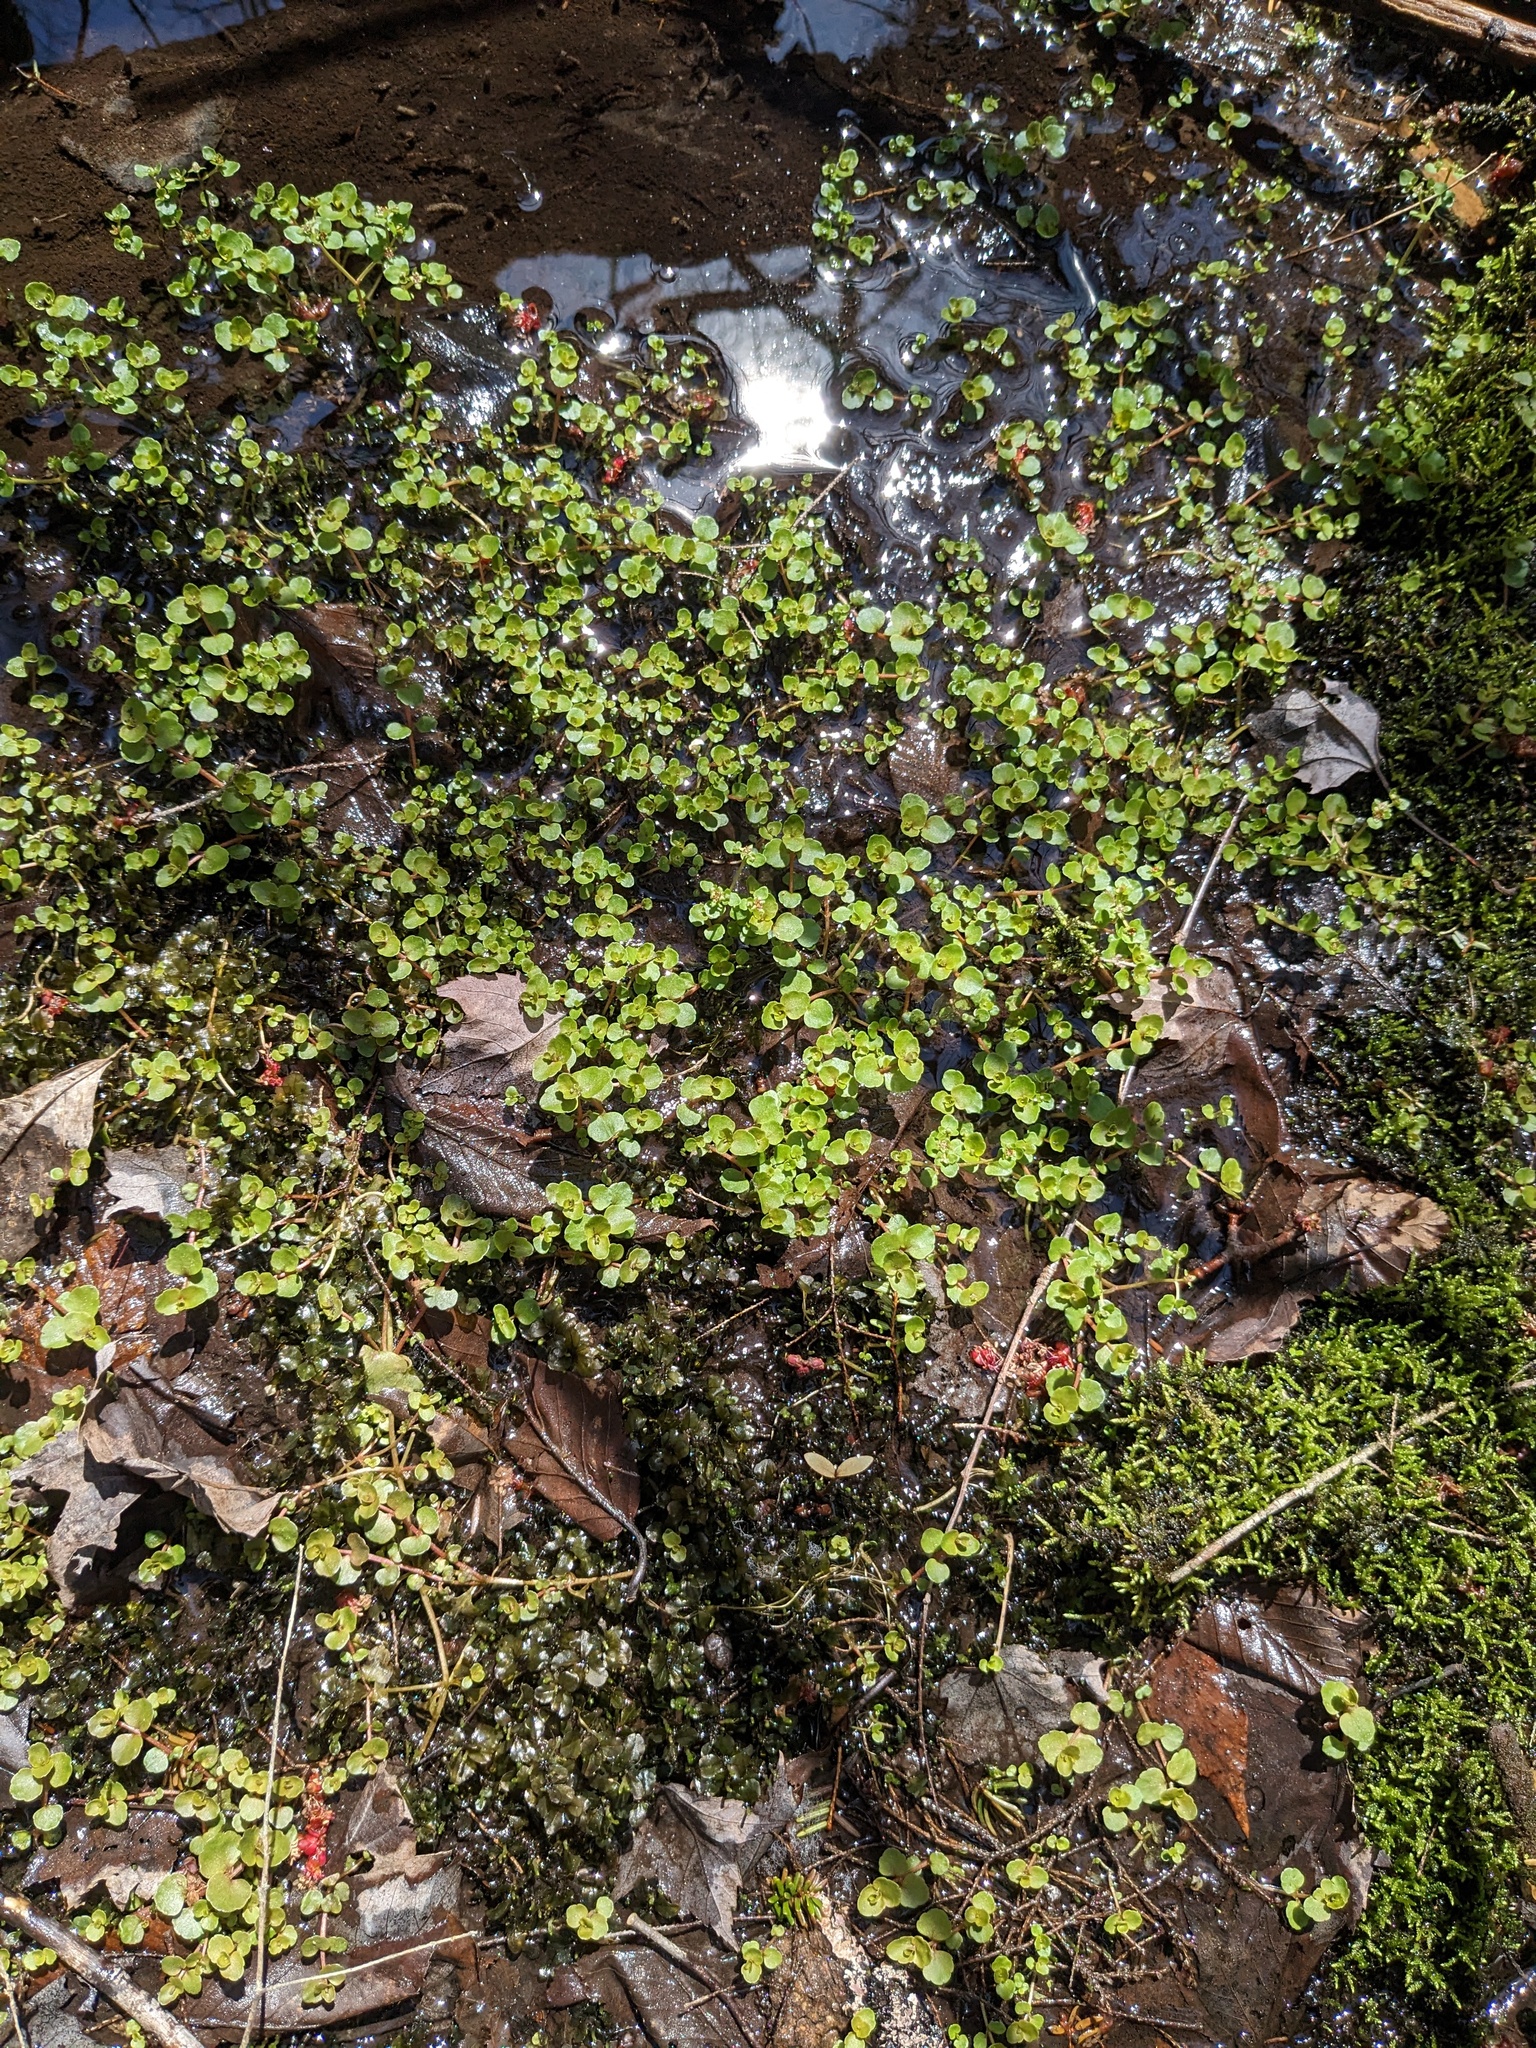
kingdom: Plantae
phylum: Tracheophyta
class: Magnoliopsida
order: Saxifragales
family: Saxifragaceae
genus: Chrysosplenium
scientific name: Chrysosplenium americanum
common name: American golden-saxifrage
